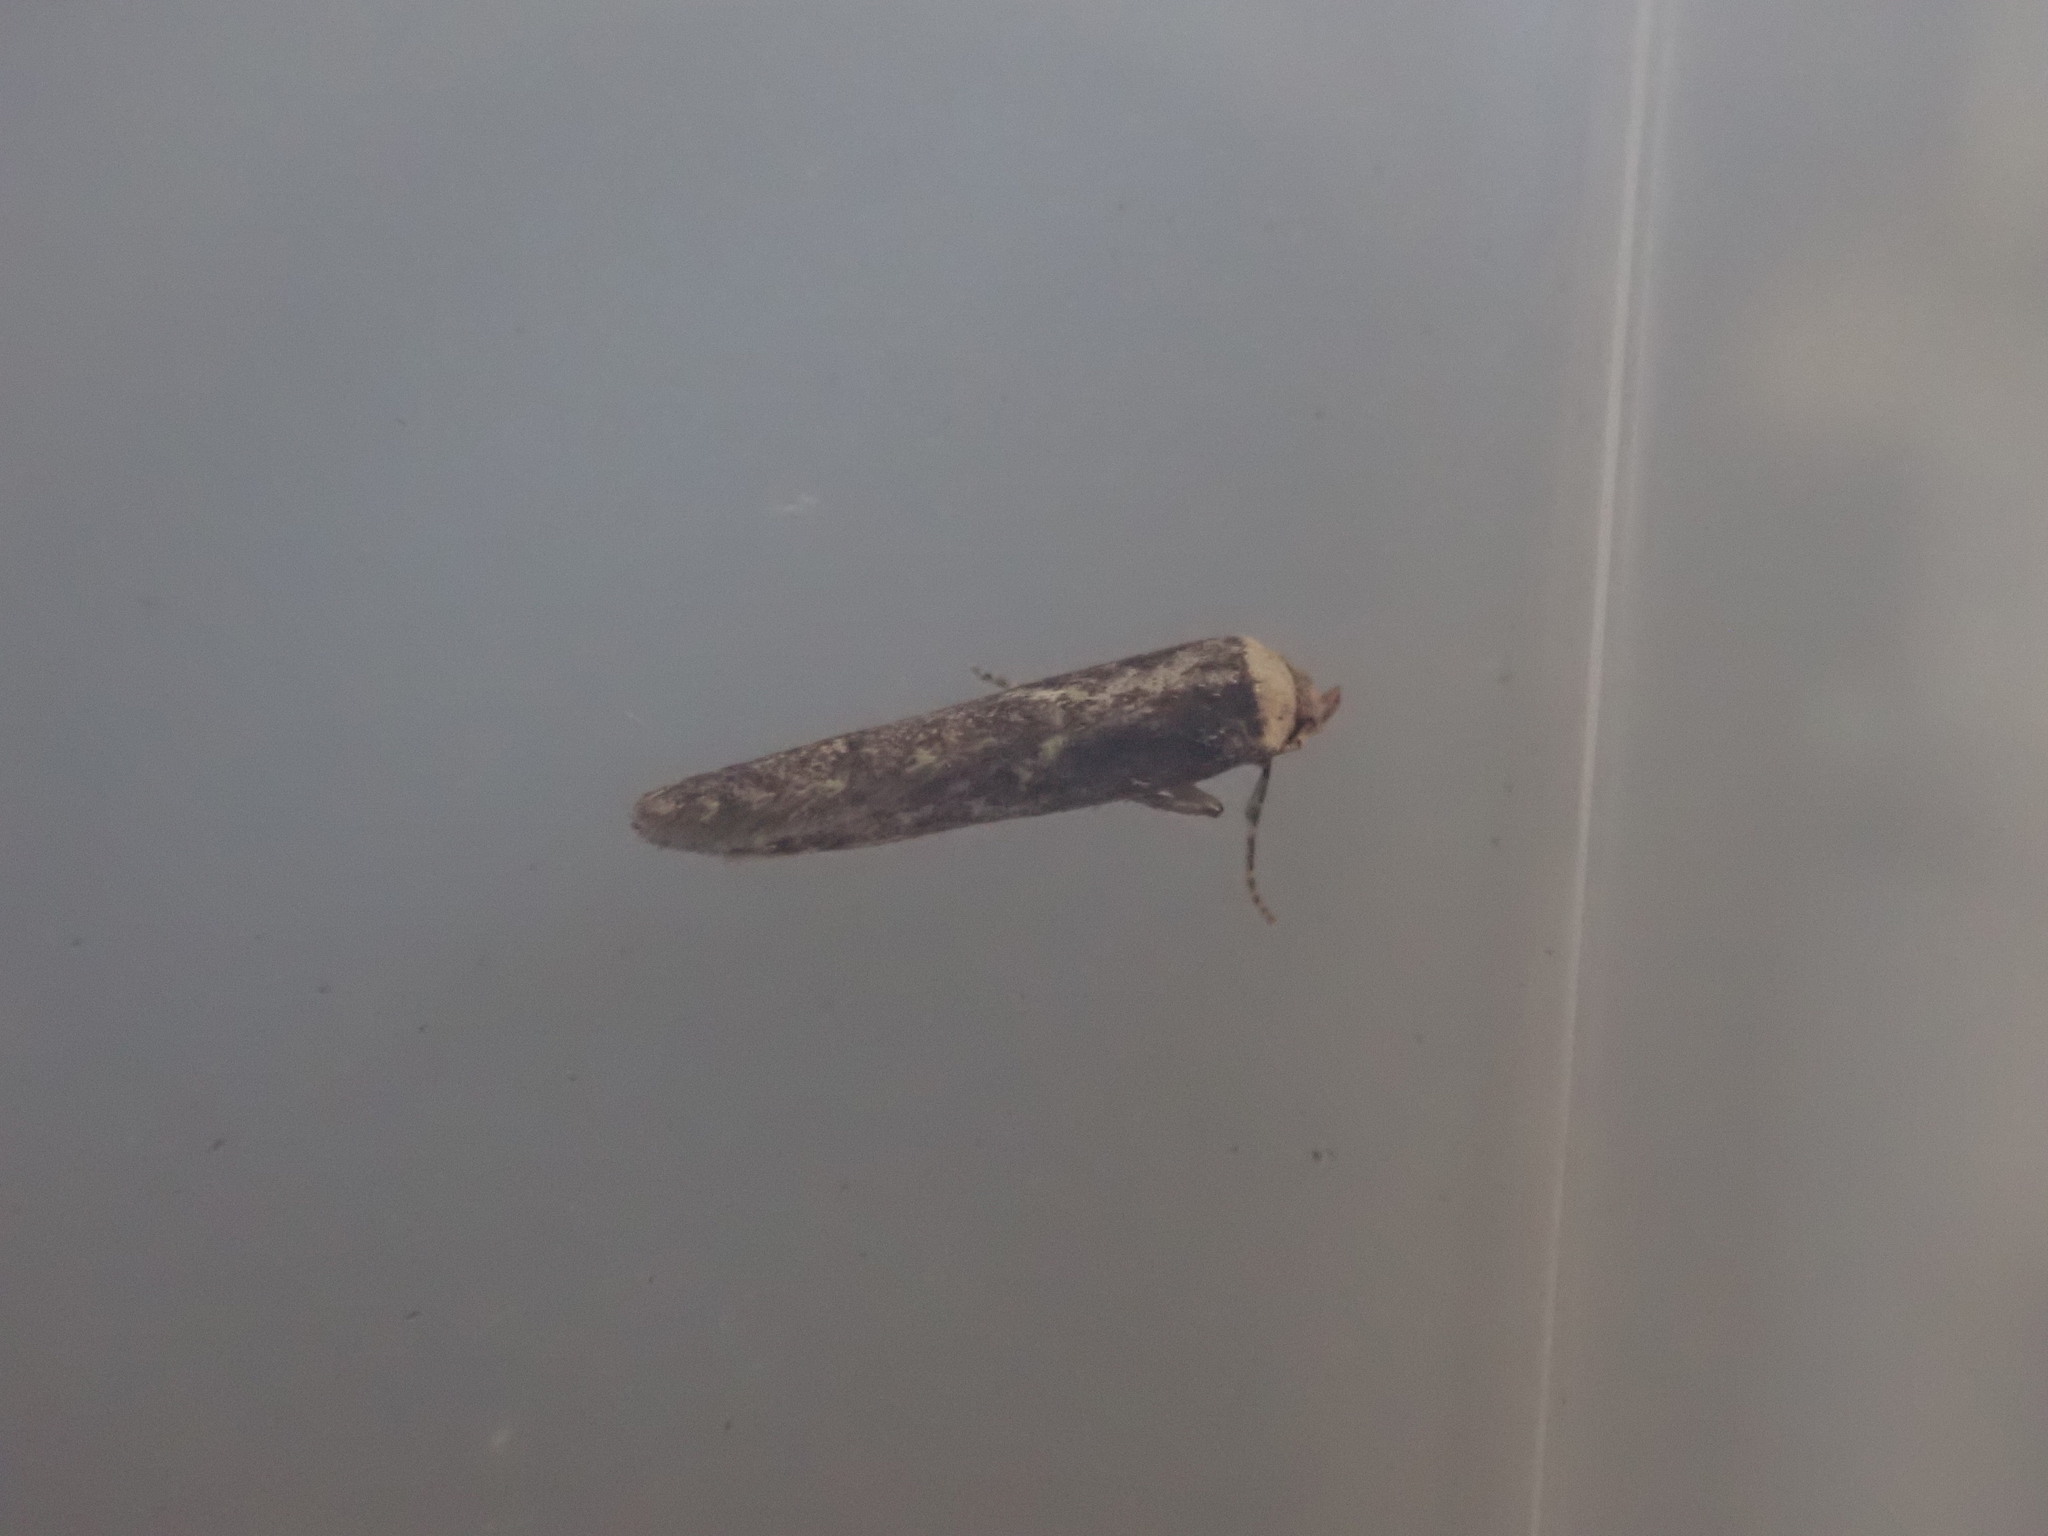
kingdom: Animalia
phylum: Arthropoda
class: Insecta
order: Lepidoptera
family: Blastobasidae
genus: Blastobasis
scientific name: Blastobasis adustella
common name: Dingy dowd
